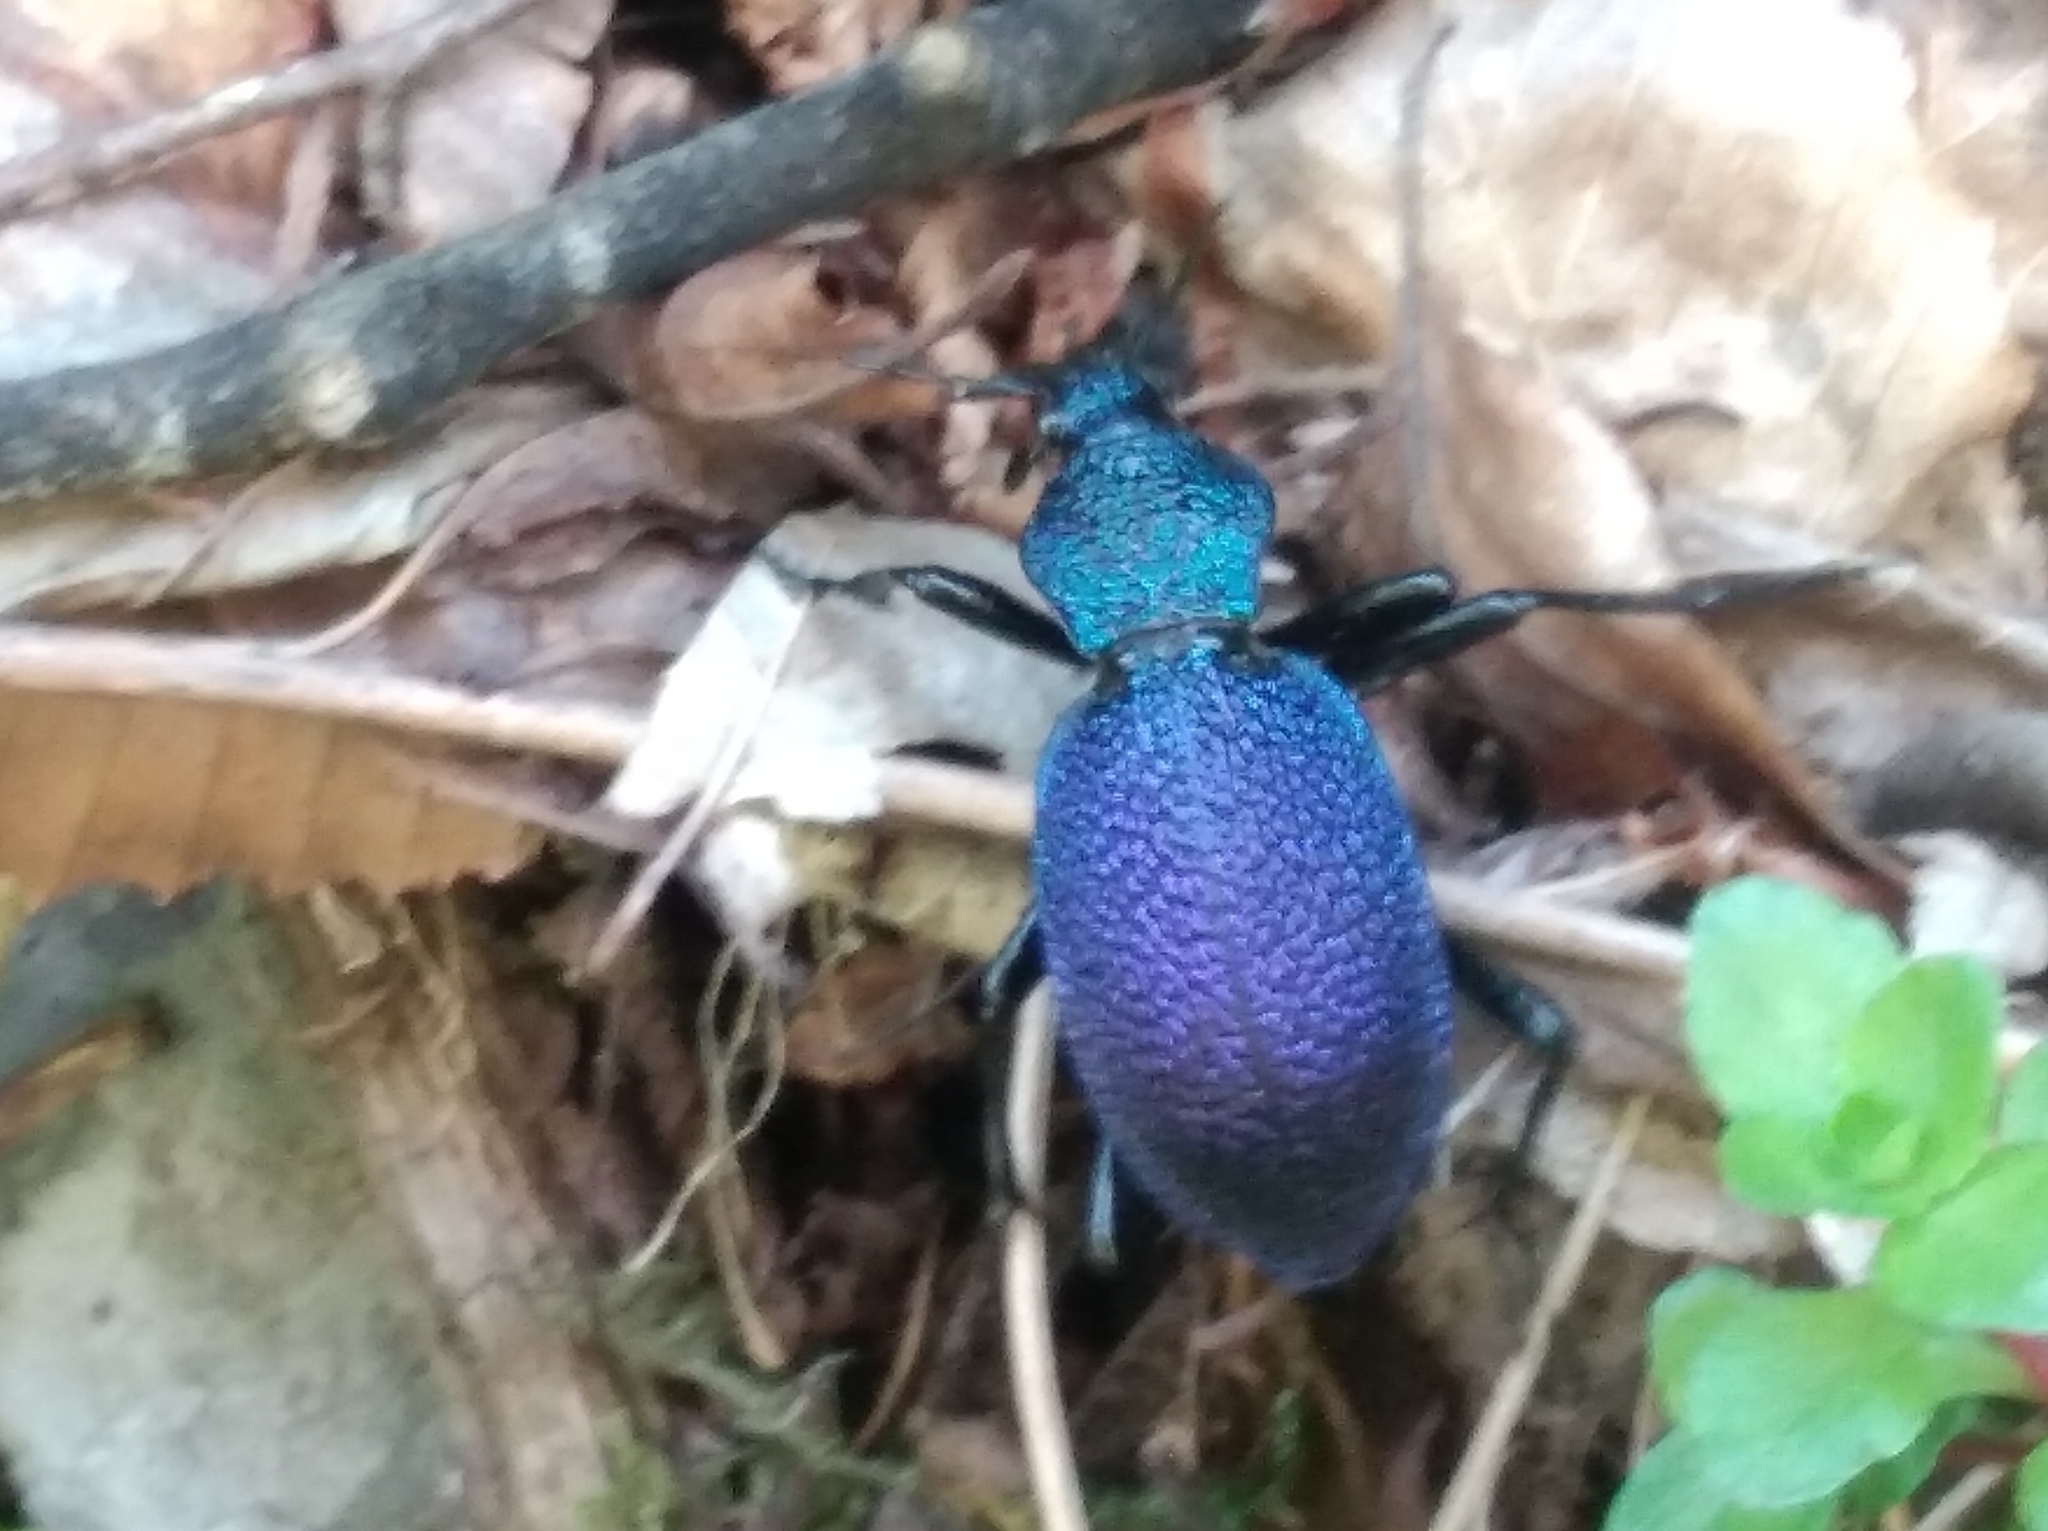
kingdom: Animalia
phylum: Arthropoda
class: Insecta
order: Coleoptera
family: Carabidae
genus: Carabus
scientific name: Carabus scabrosus
